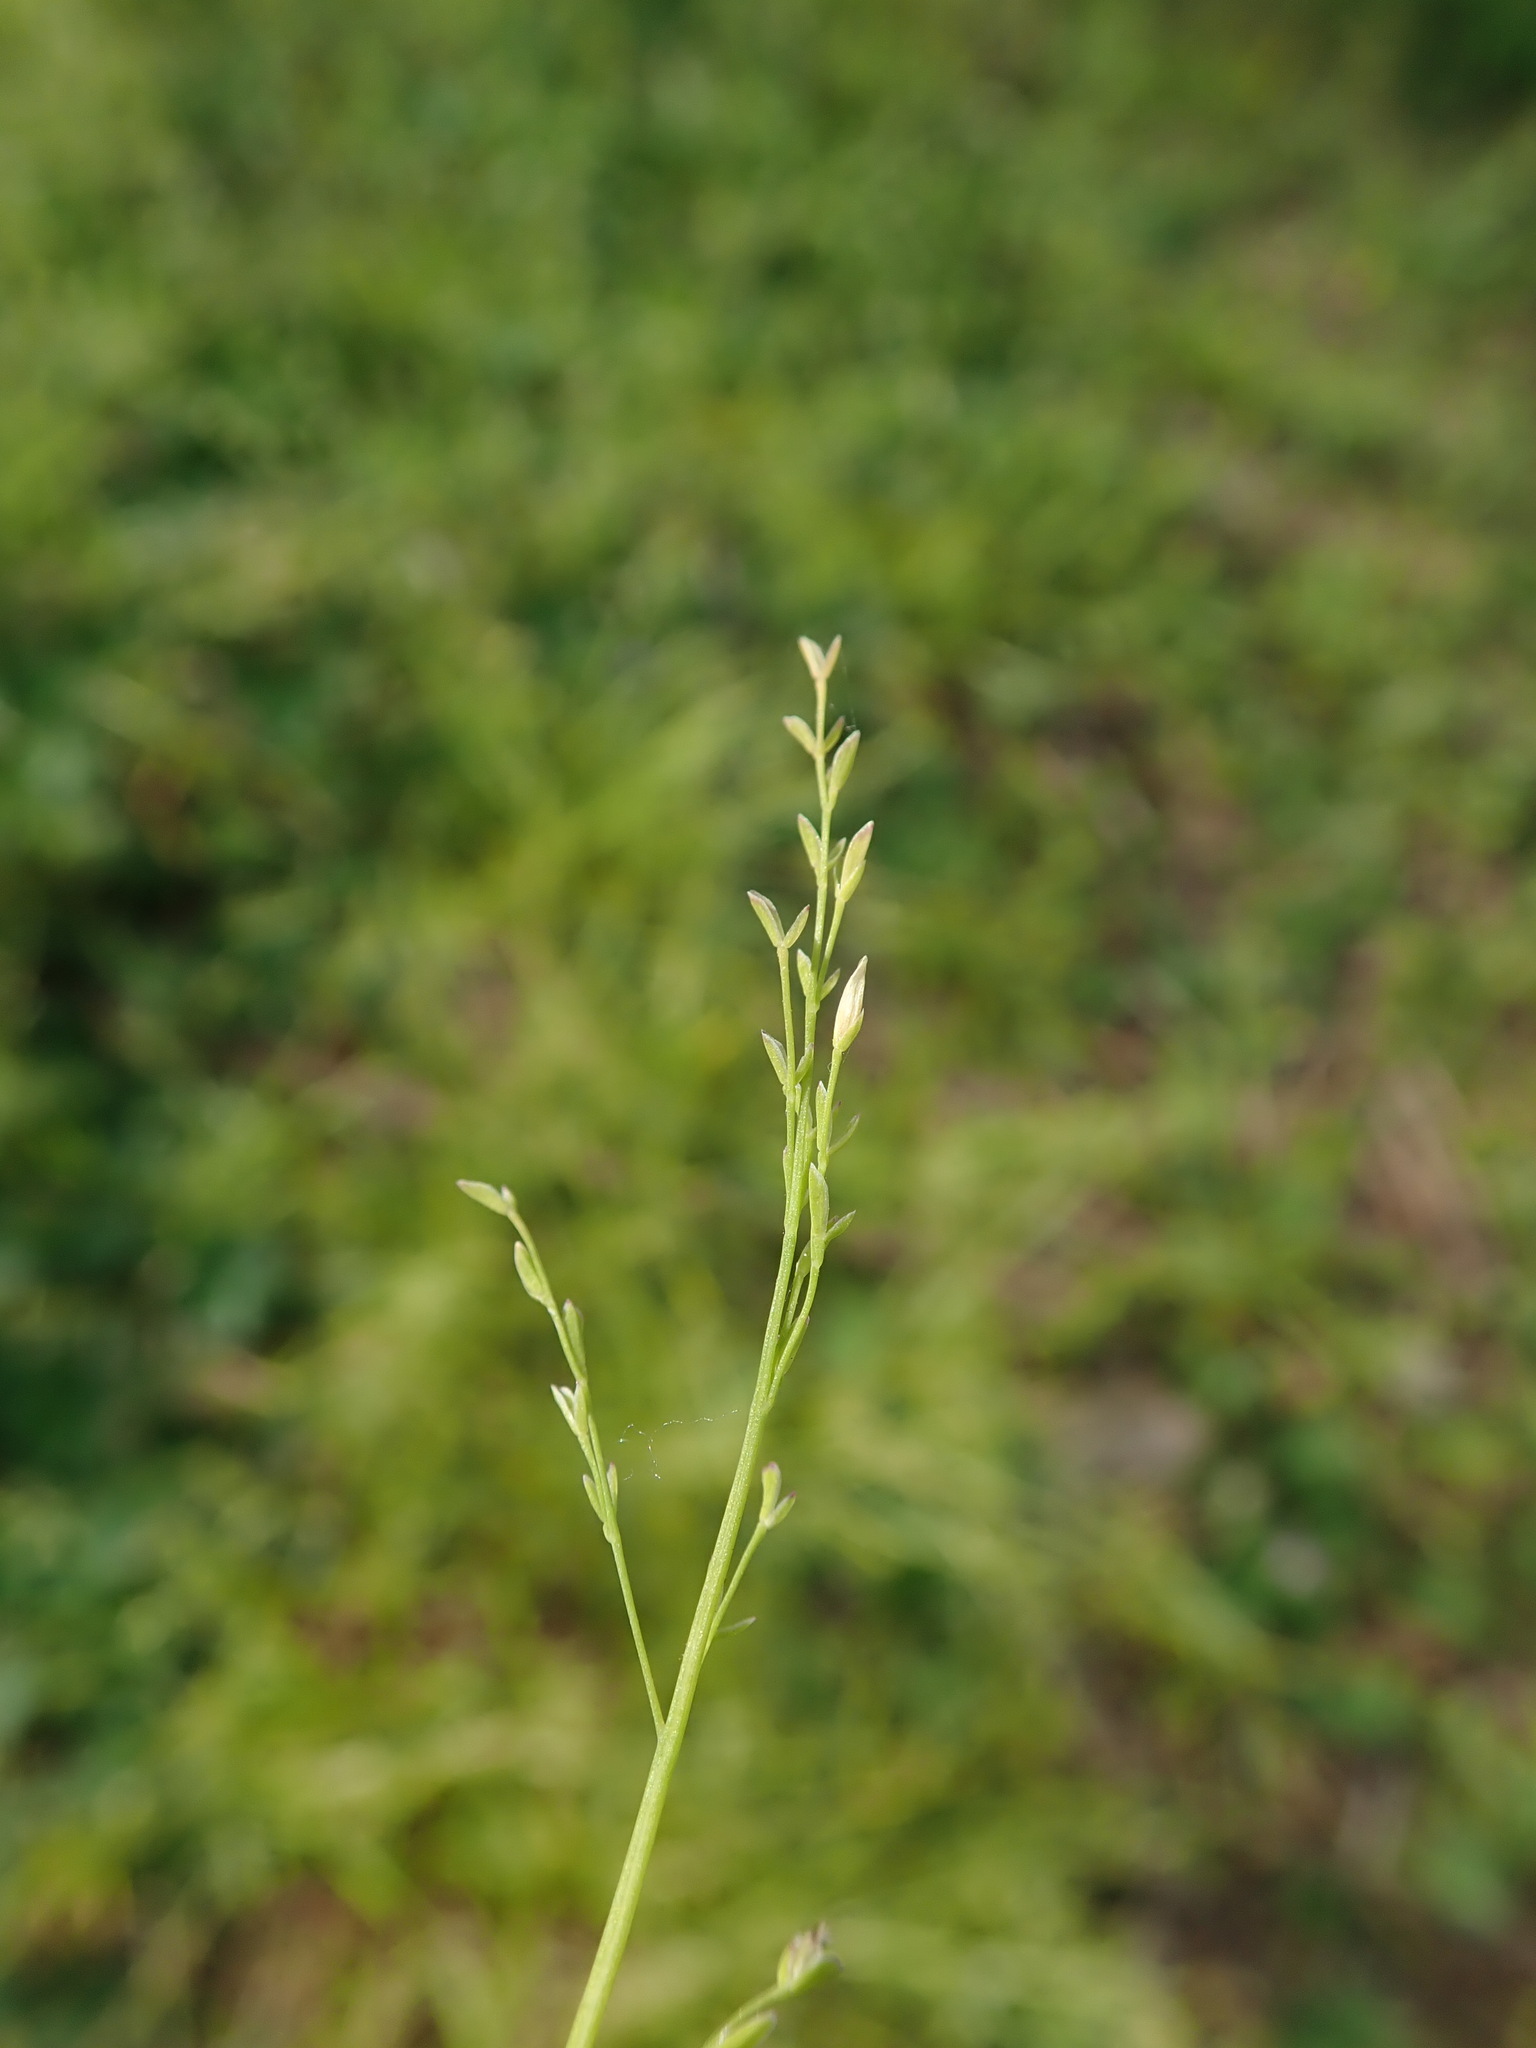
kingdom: Plantae
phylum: Tracheophyta
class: Liliopsida
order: Poales
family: Poaceae
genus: Poa
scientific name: Poa infirma
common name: Weak bluegrass
